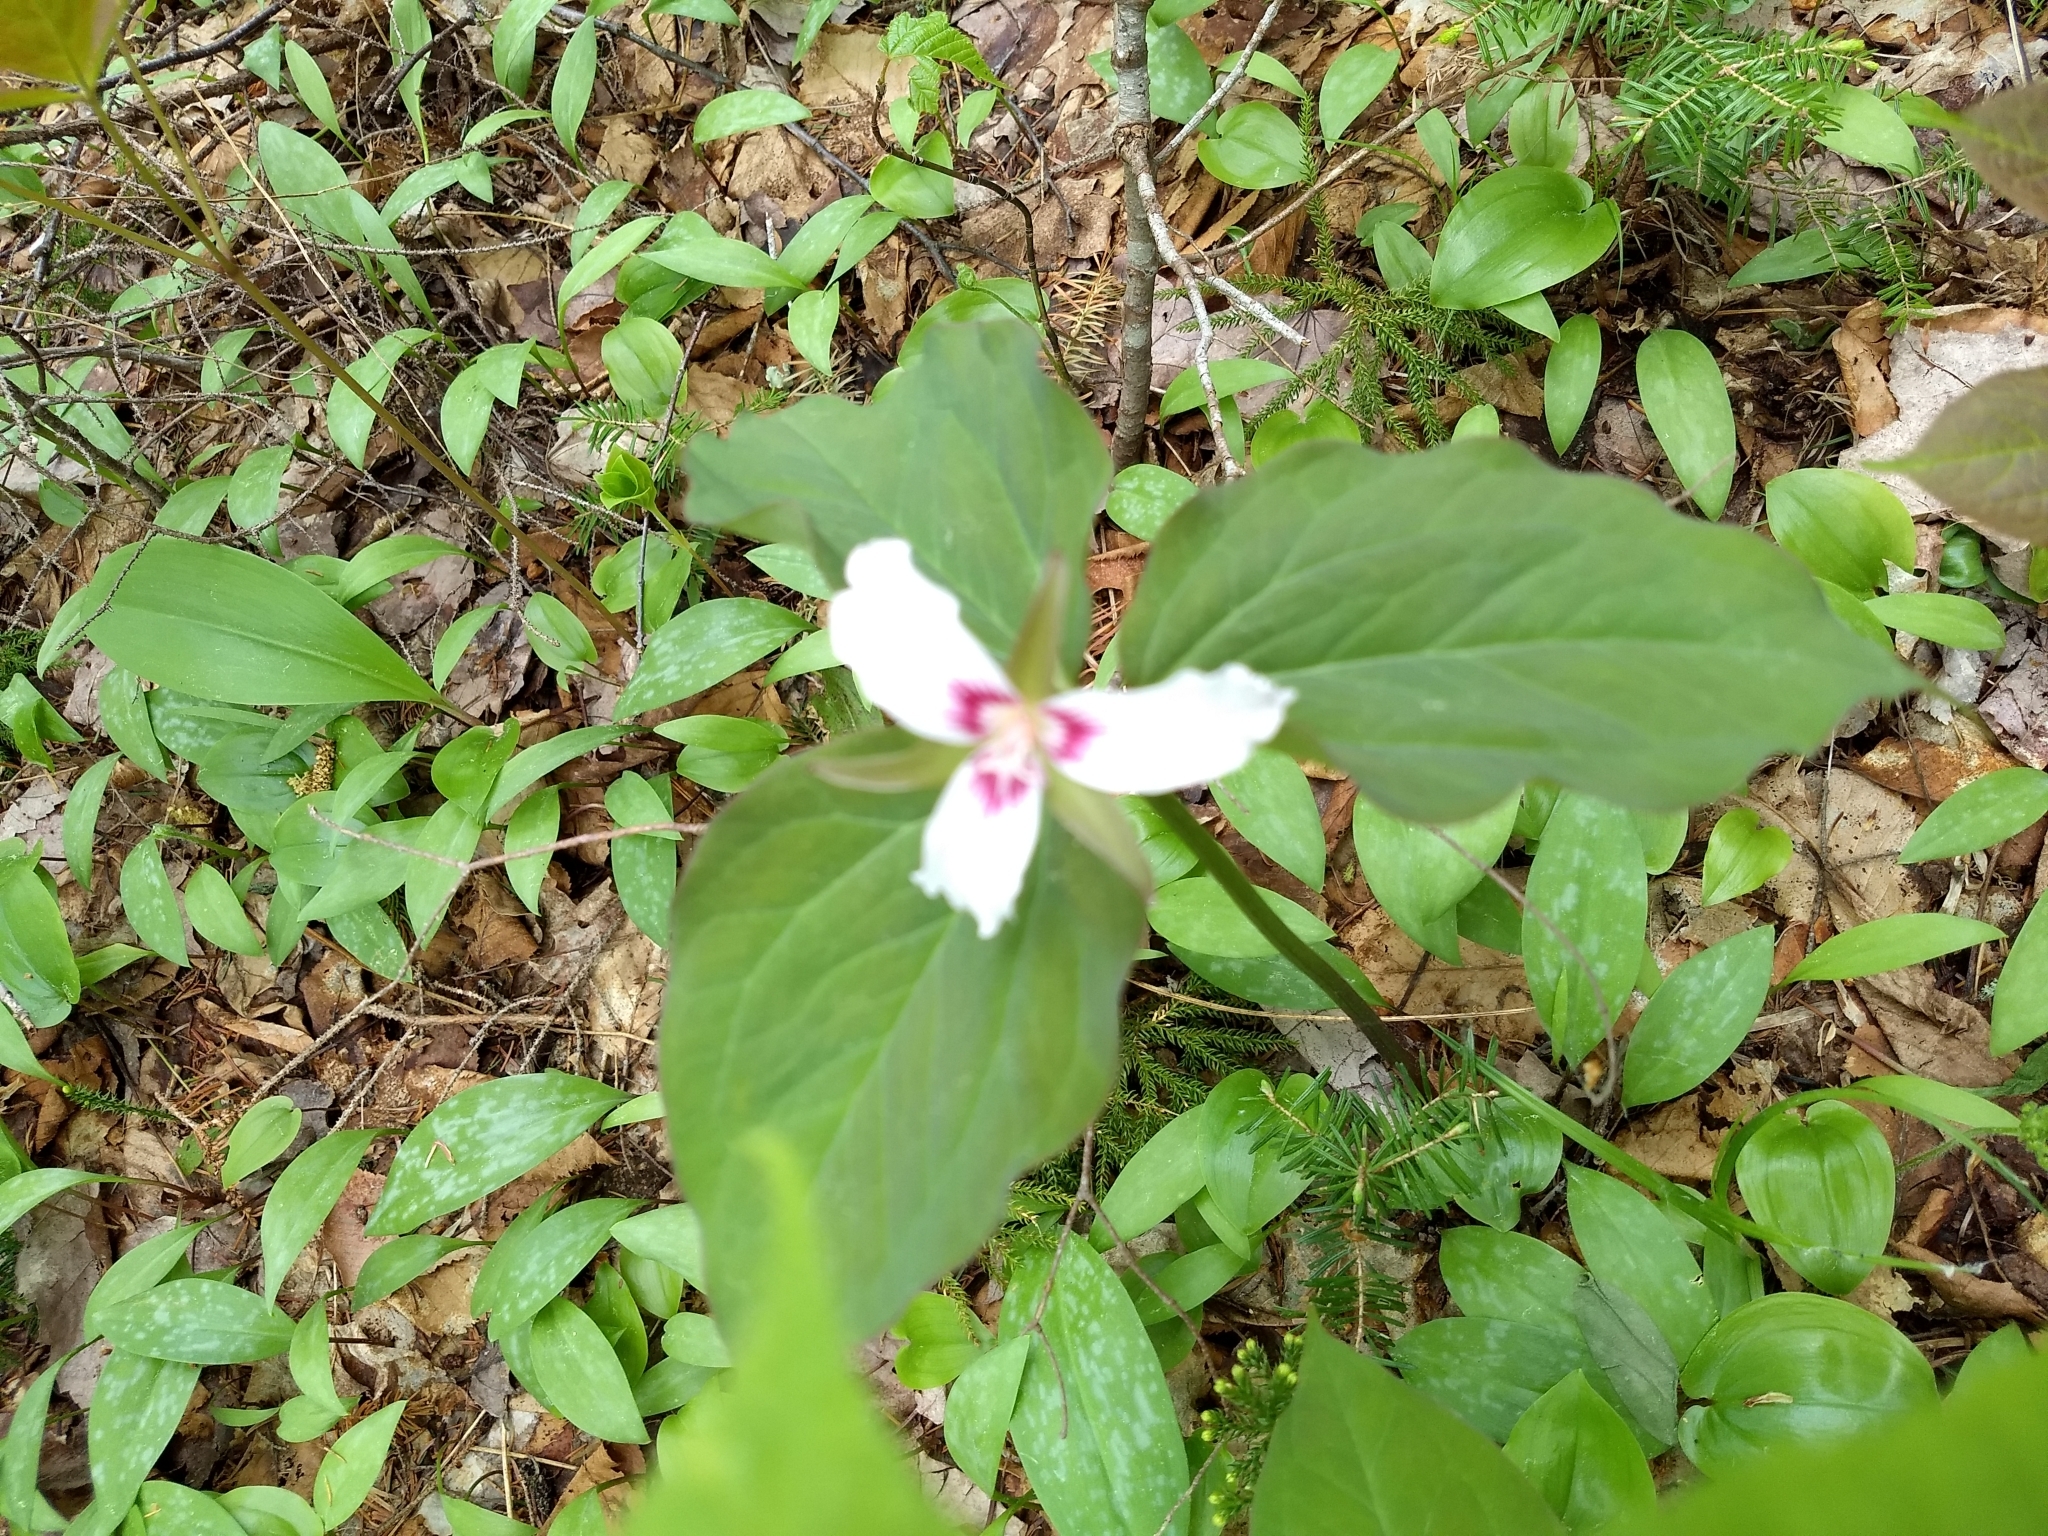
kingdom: Plantae
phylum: Tracheophyta
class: Liliopsida
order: Liliales
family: Melanthiaceae
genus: Trillium
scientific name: Trillium undulatum
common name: Paint trillium
